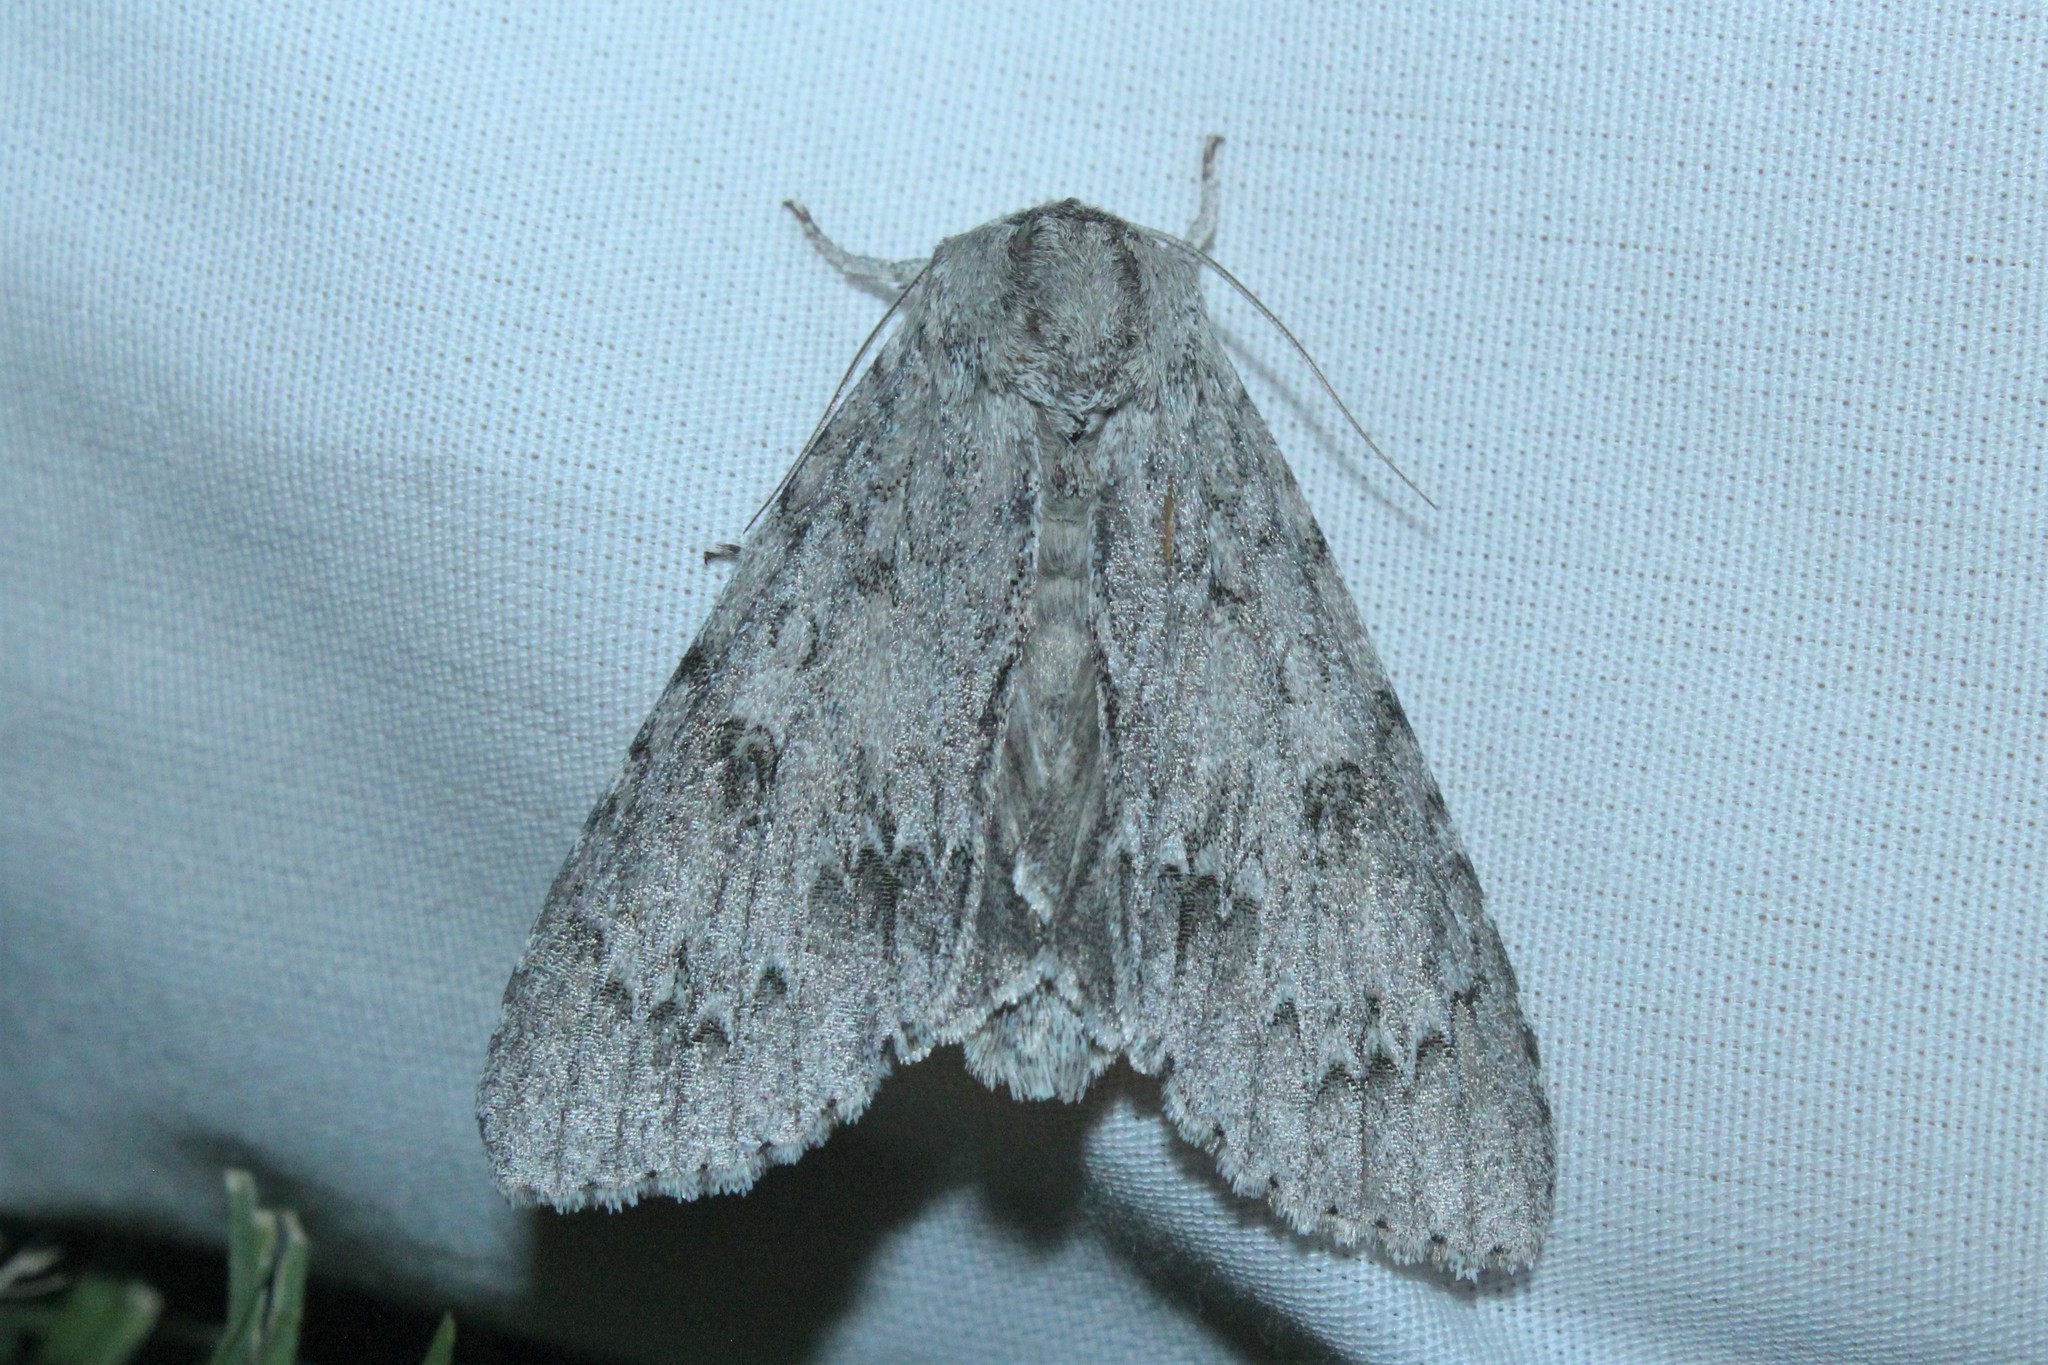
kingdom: Animalia
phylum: Arthropoda
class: Insecta
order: Lepidoptera
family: Noctuidae
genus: Acronicta
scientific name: Acronicta americana
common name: American dagger
